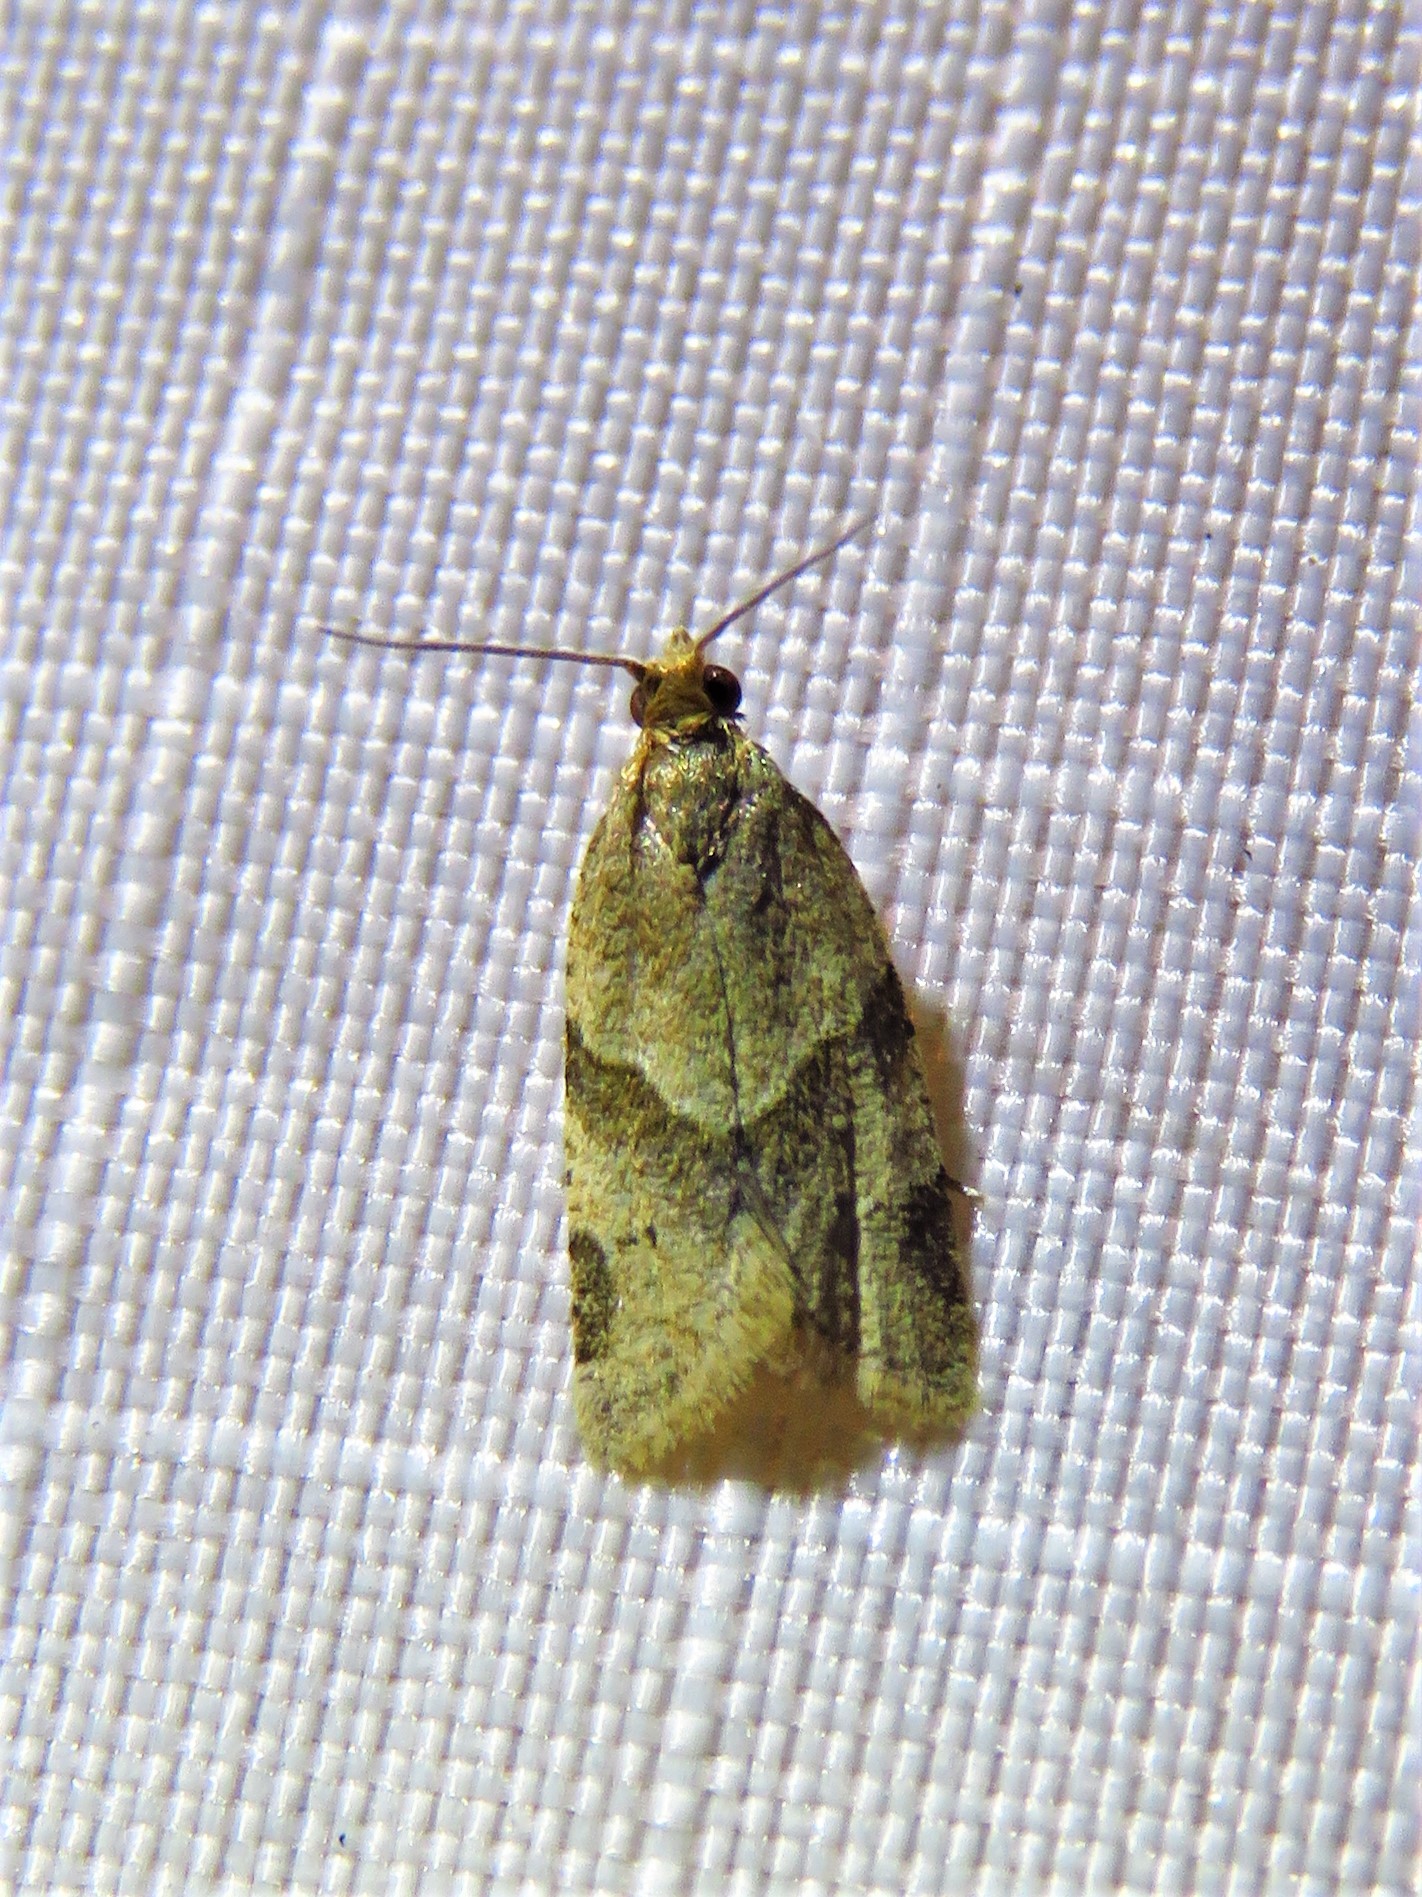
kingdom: Animalia
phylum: Arthropoda
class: Insecta
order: Lepidoptera
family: Tortricidae
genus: Clepsis
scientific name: Clepsis peritana
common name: Garden tortrix
